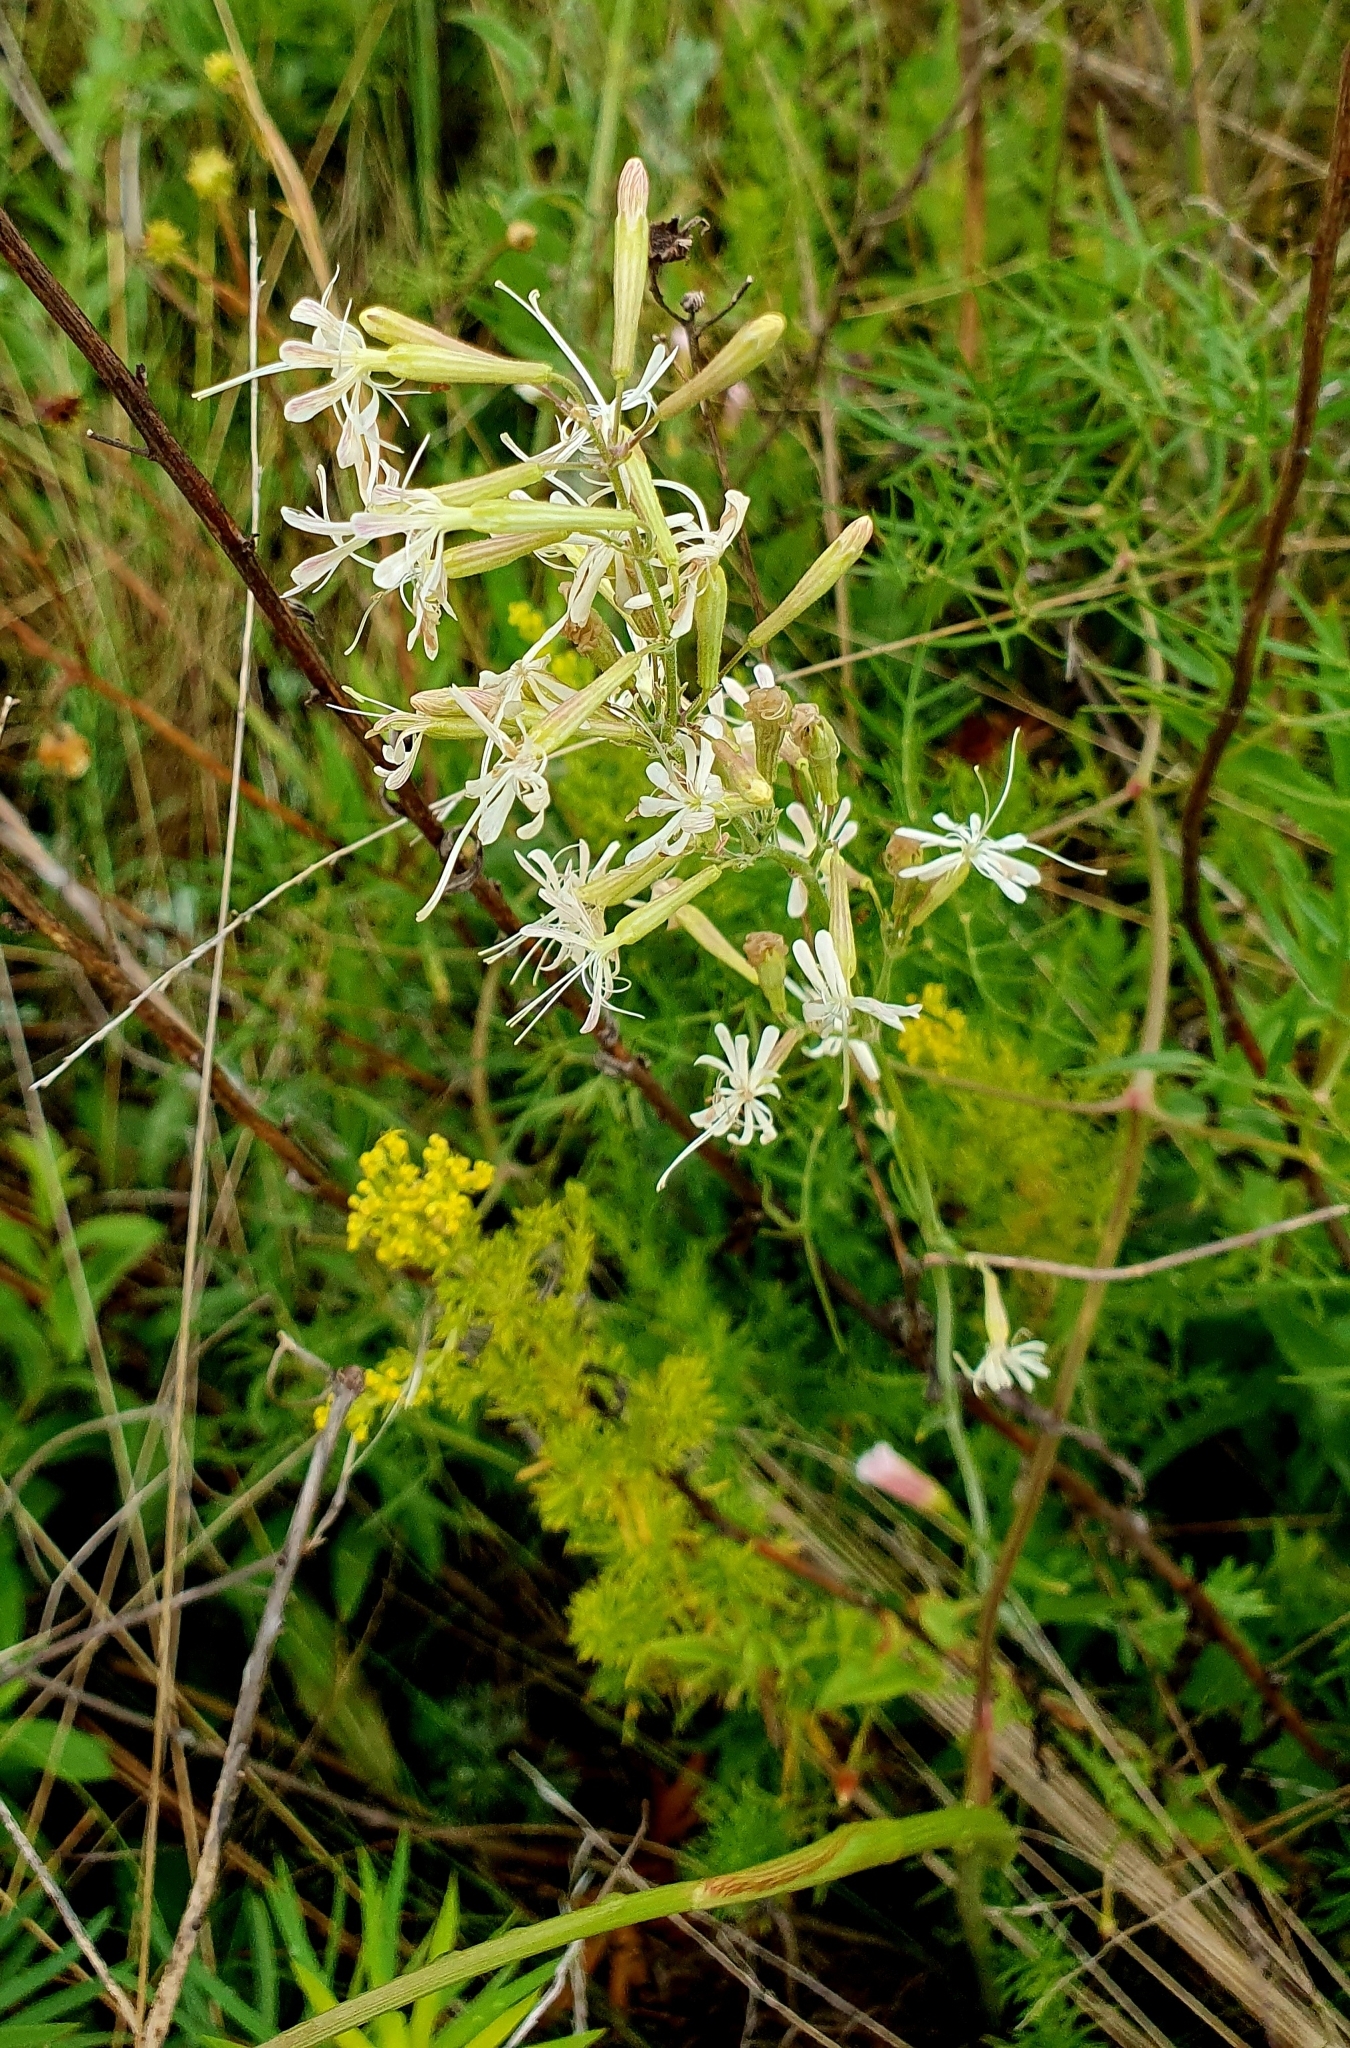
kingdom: Plantae
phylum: Tracheophyta
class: Magnoliopsida
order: Caryophyllales
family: Caryophyllaceae
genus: Silene
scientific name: Silene multiflora
